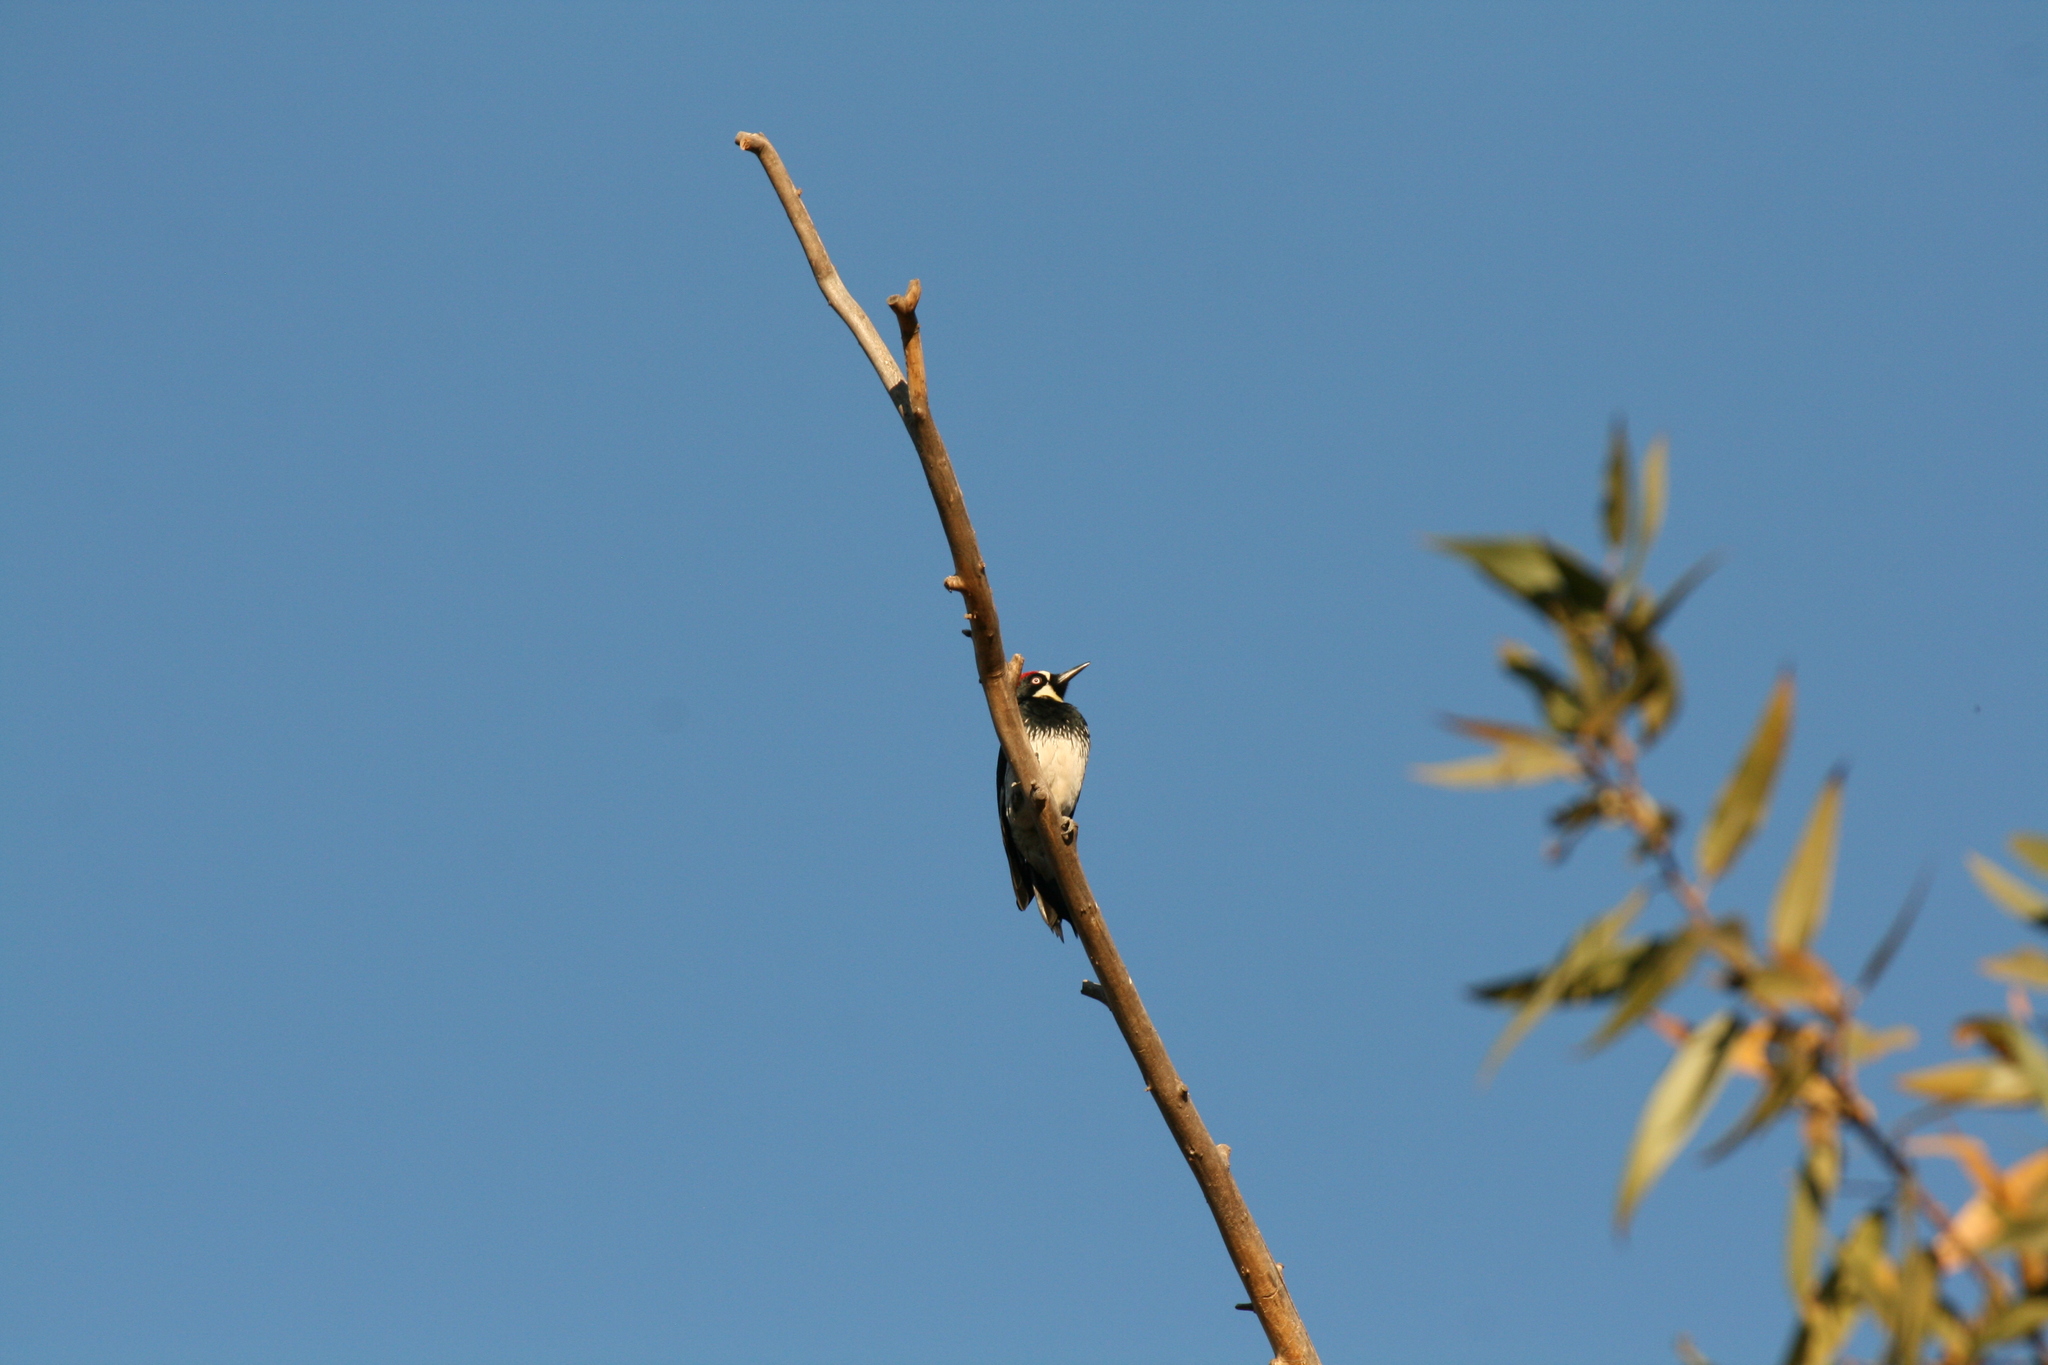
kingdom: Animalia
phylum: Chordata
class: Aves
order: Piciformes
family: Picidae
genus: Melanerpes
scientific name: Melanerpes formicivorus
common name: Acorn woodpecker
